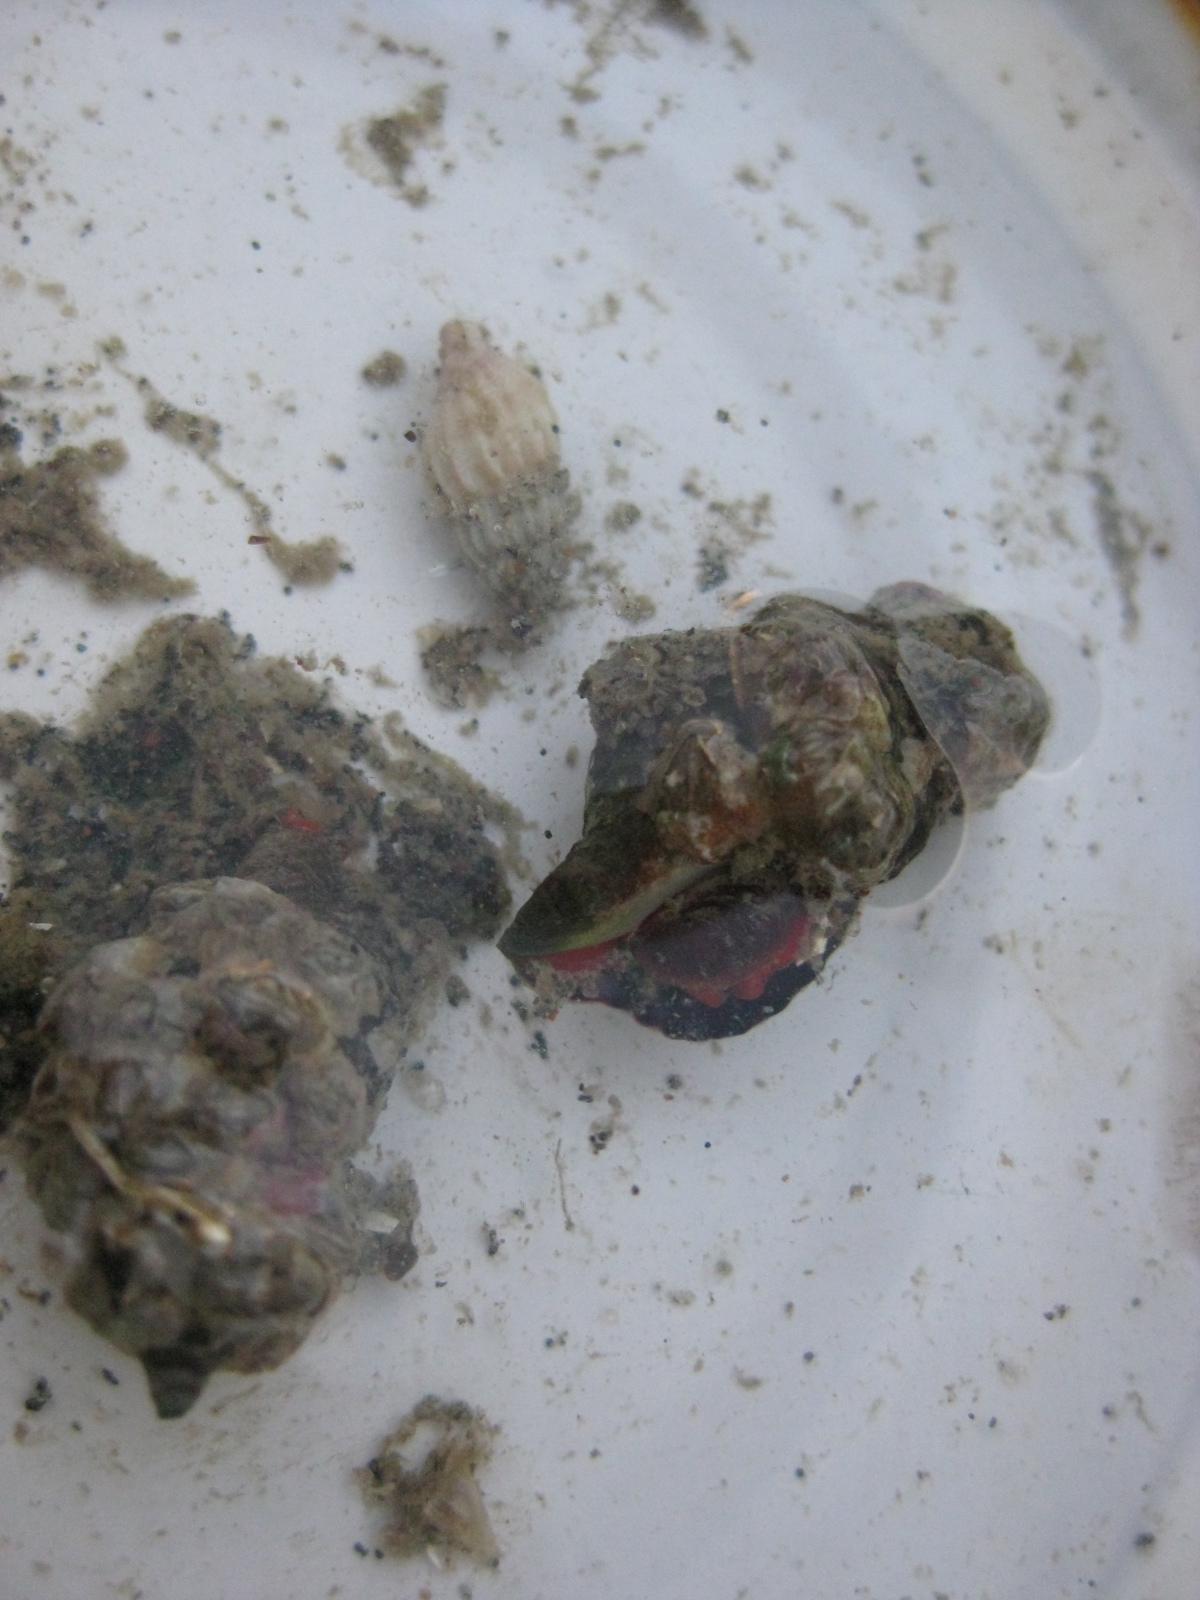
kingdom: Animalia
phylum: Mollusca
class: Gastropoda
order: Neogastropoda
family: Fasciolariidae
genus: Taron
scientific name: Taron dubius
